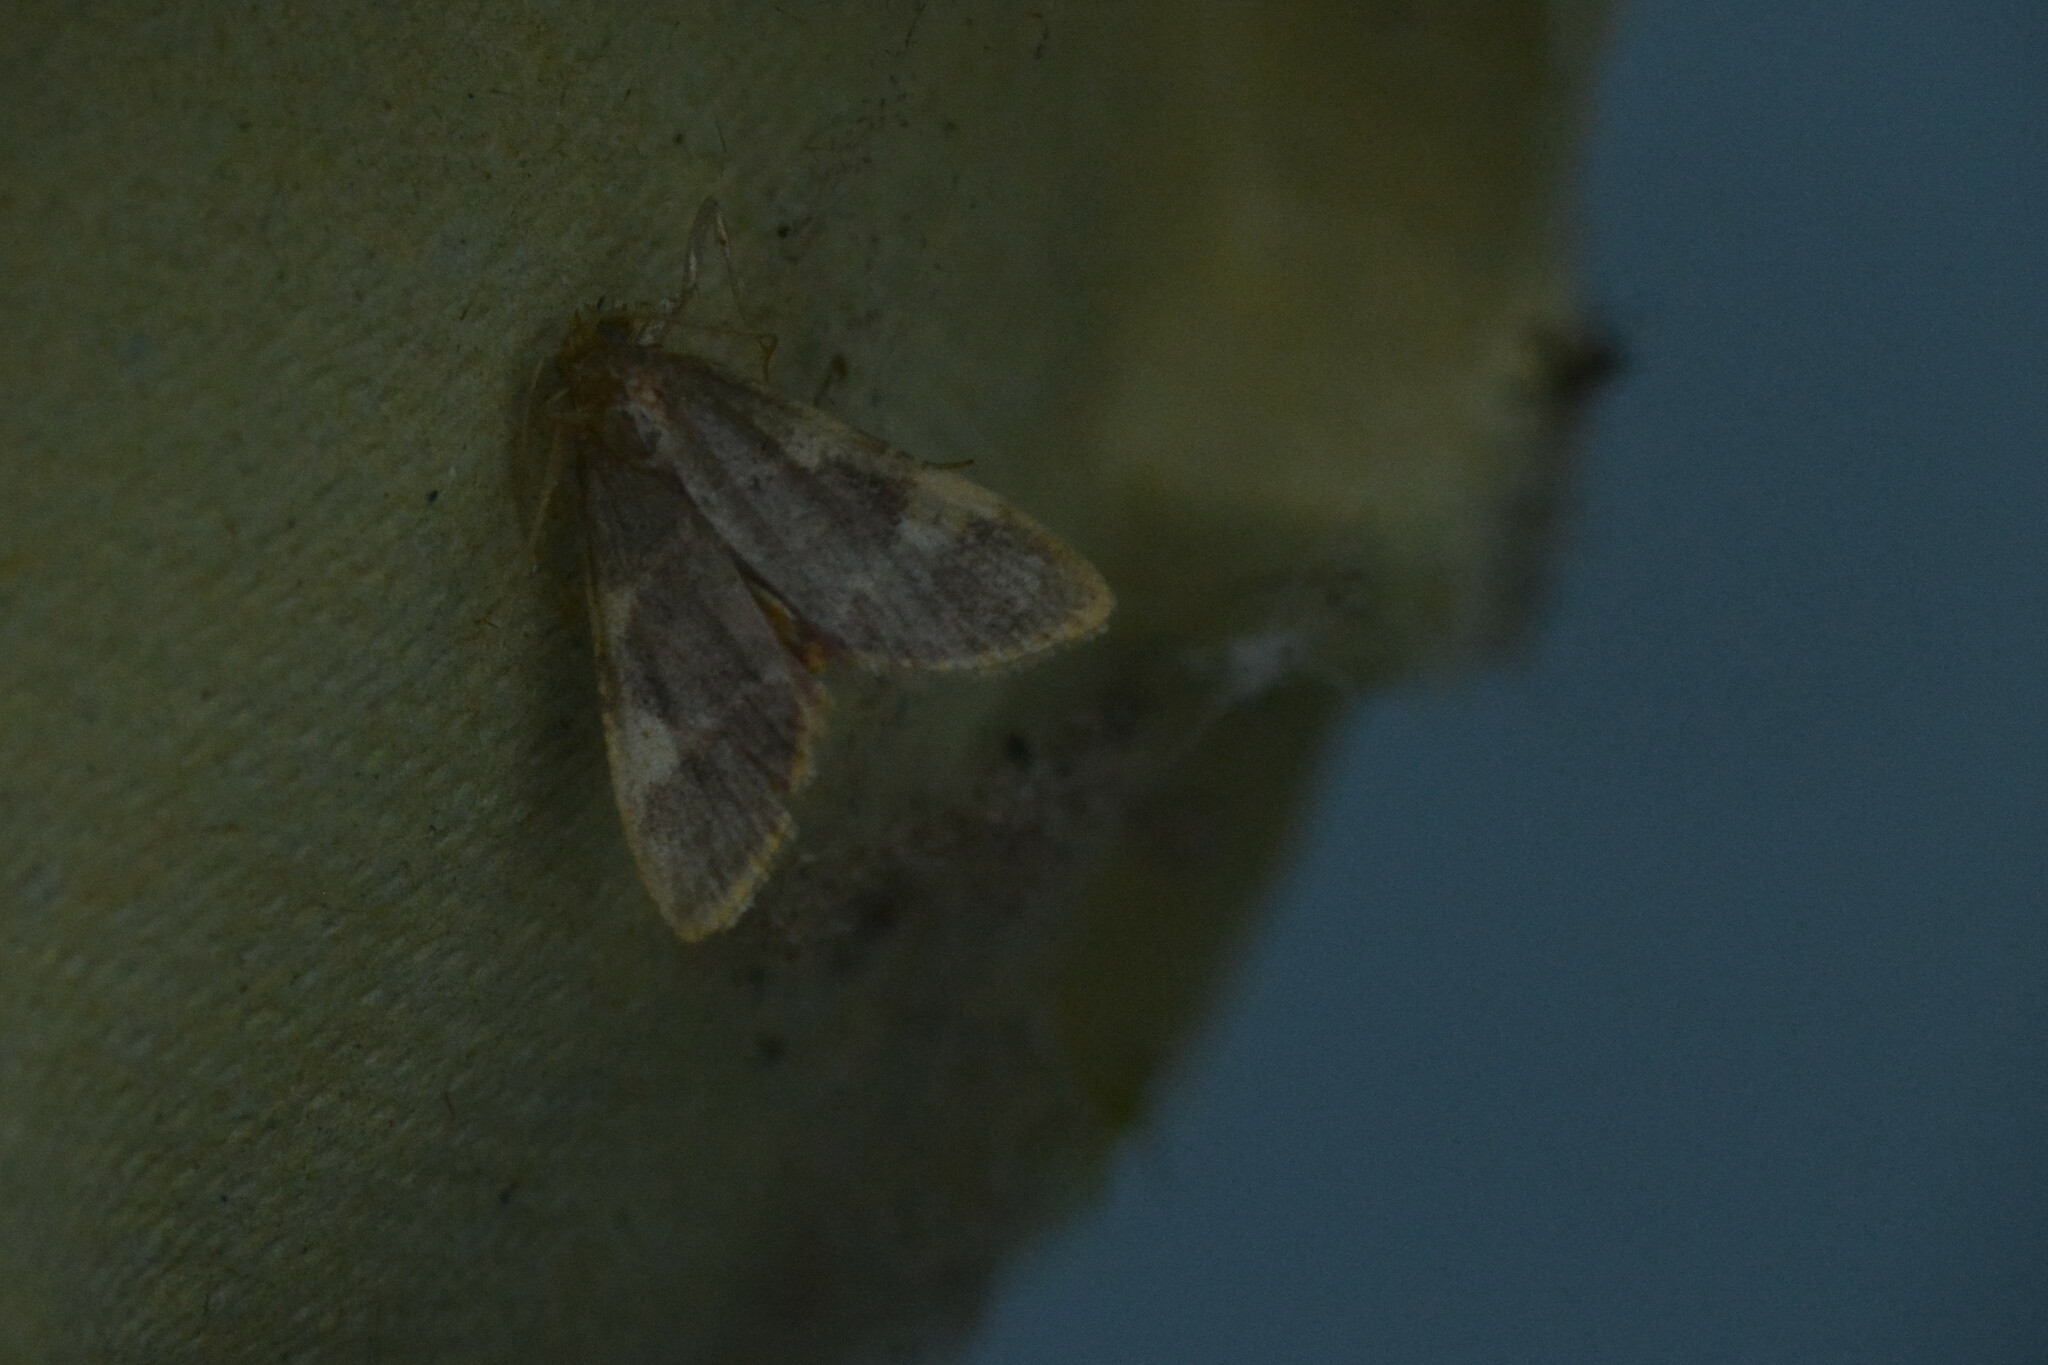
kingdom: Animalia
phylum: Arthropoda
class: Insecta
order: Lepidoptera
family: Pyralidae
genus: Hypsopygia
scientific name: Hypsopygia costalis
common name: Gold triangle
